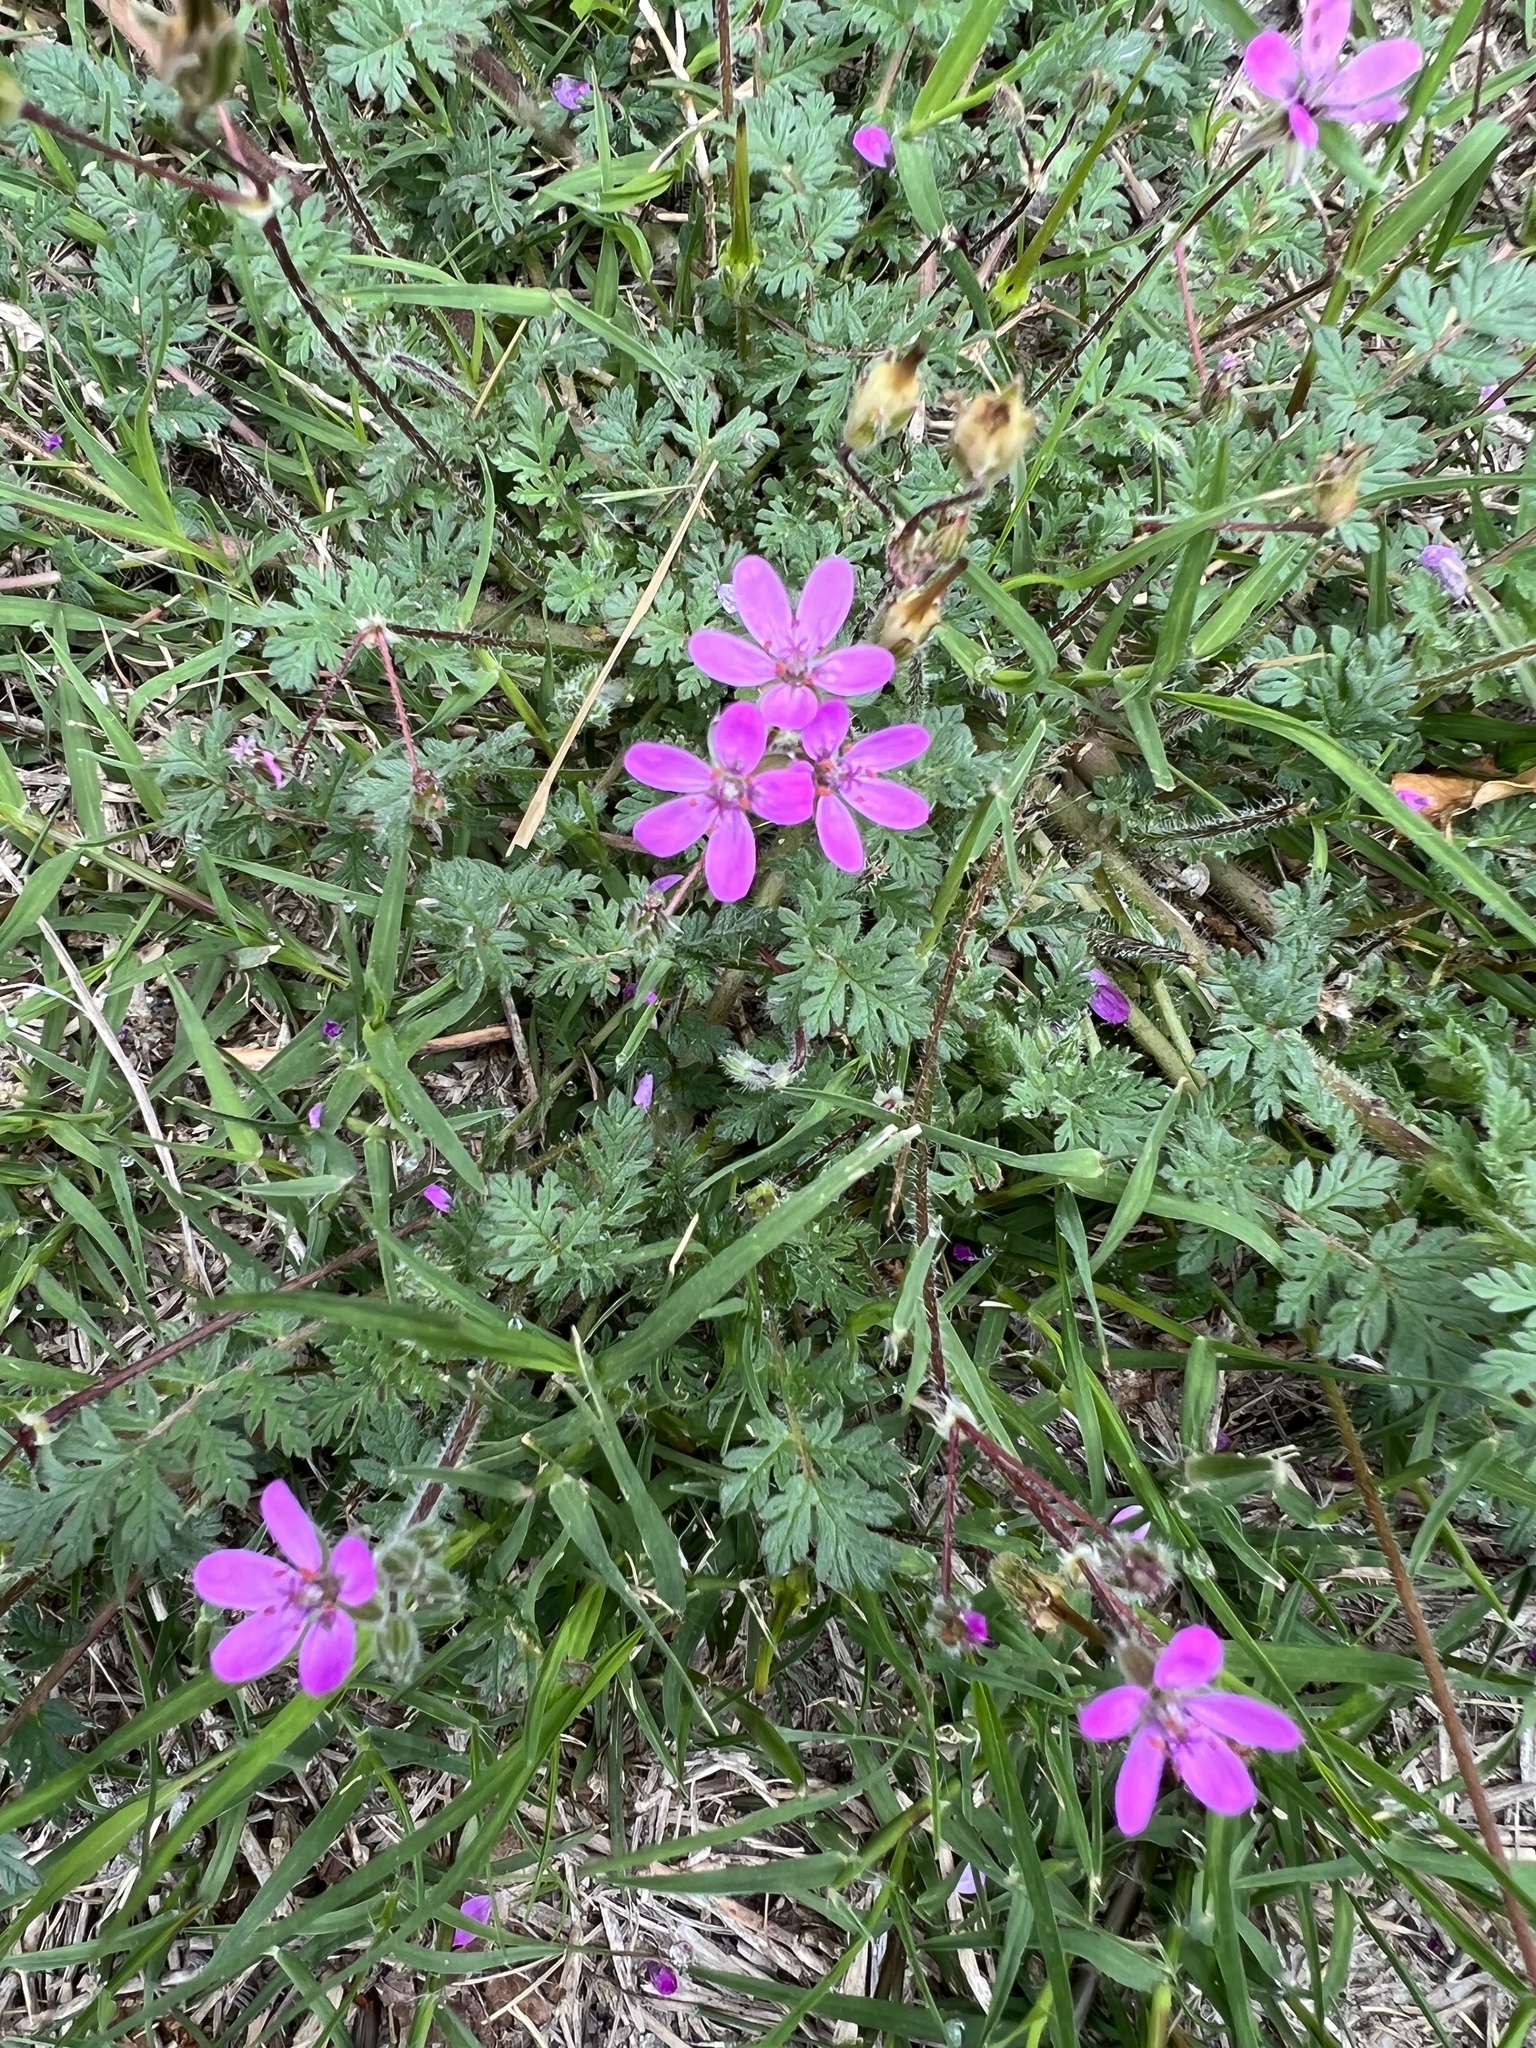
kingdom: Plantae
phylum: Tracheophyta
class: Magnoliopsida
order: Geraniales
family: Geraniaceae
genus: Erodium
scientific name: Erodium cicutarium
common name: Common stork's-bill
